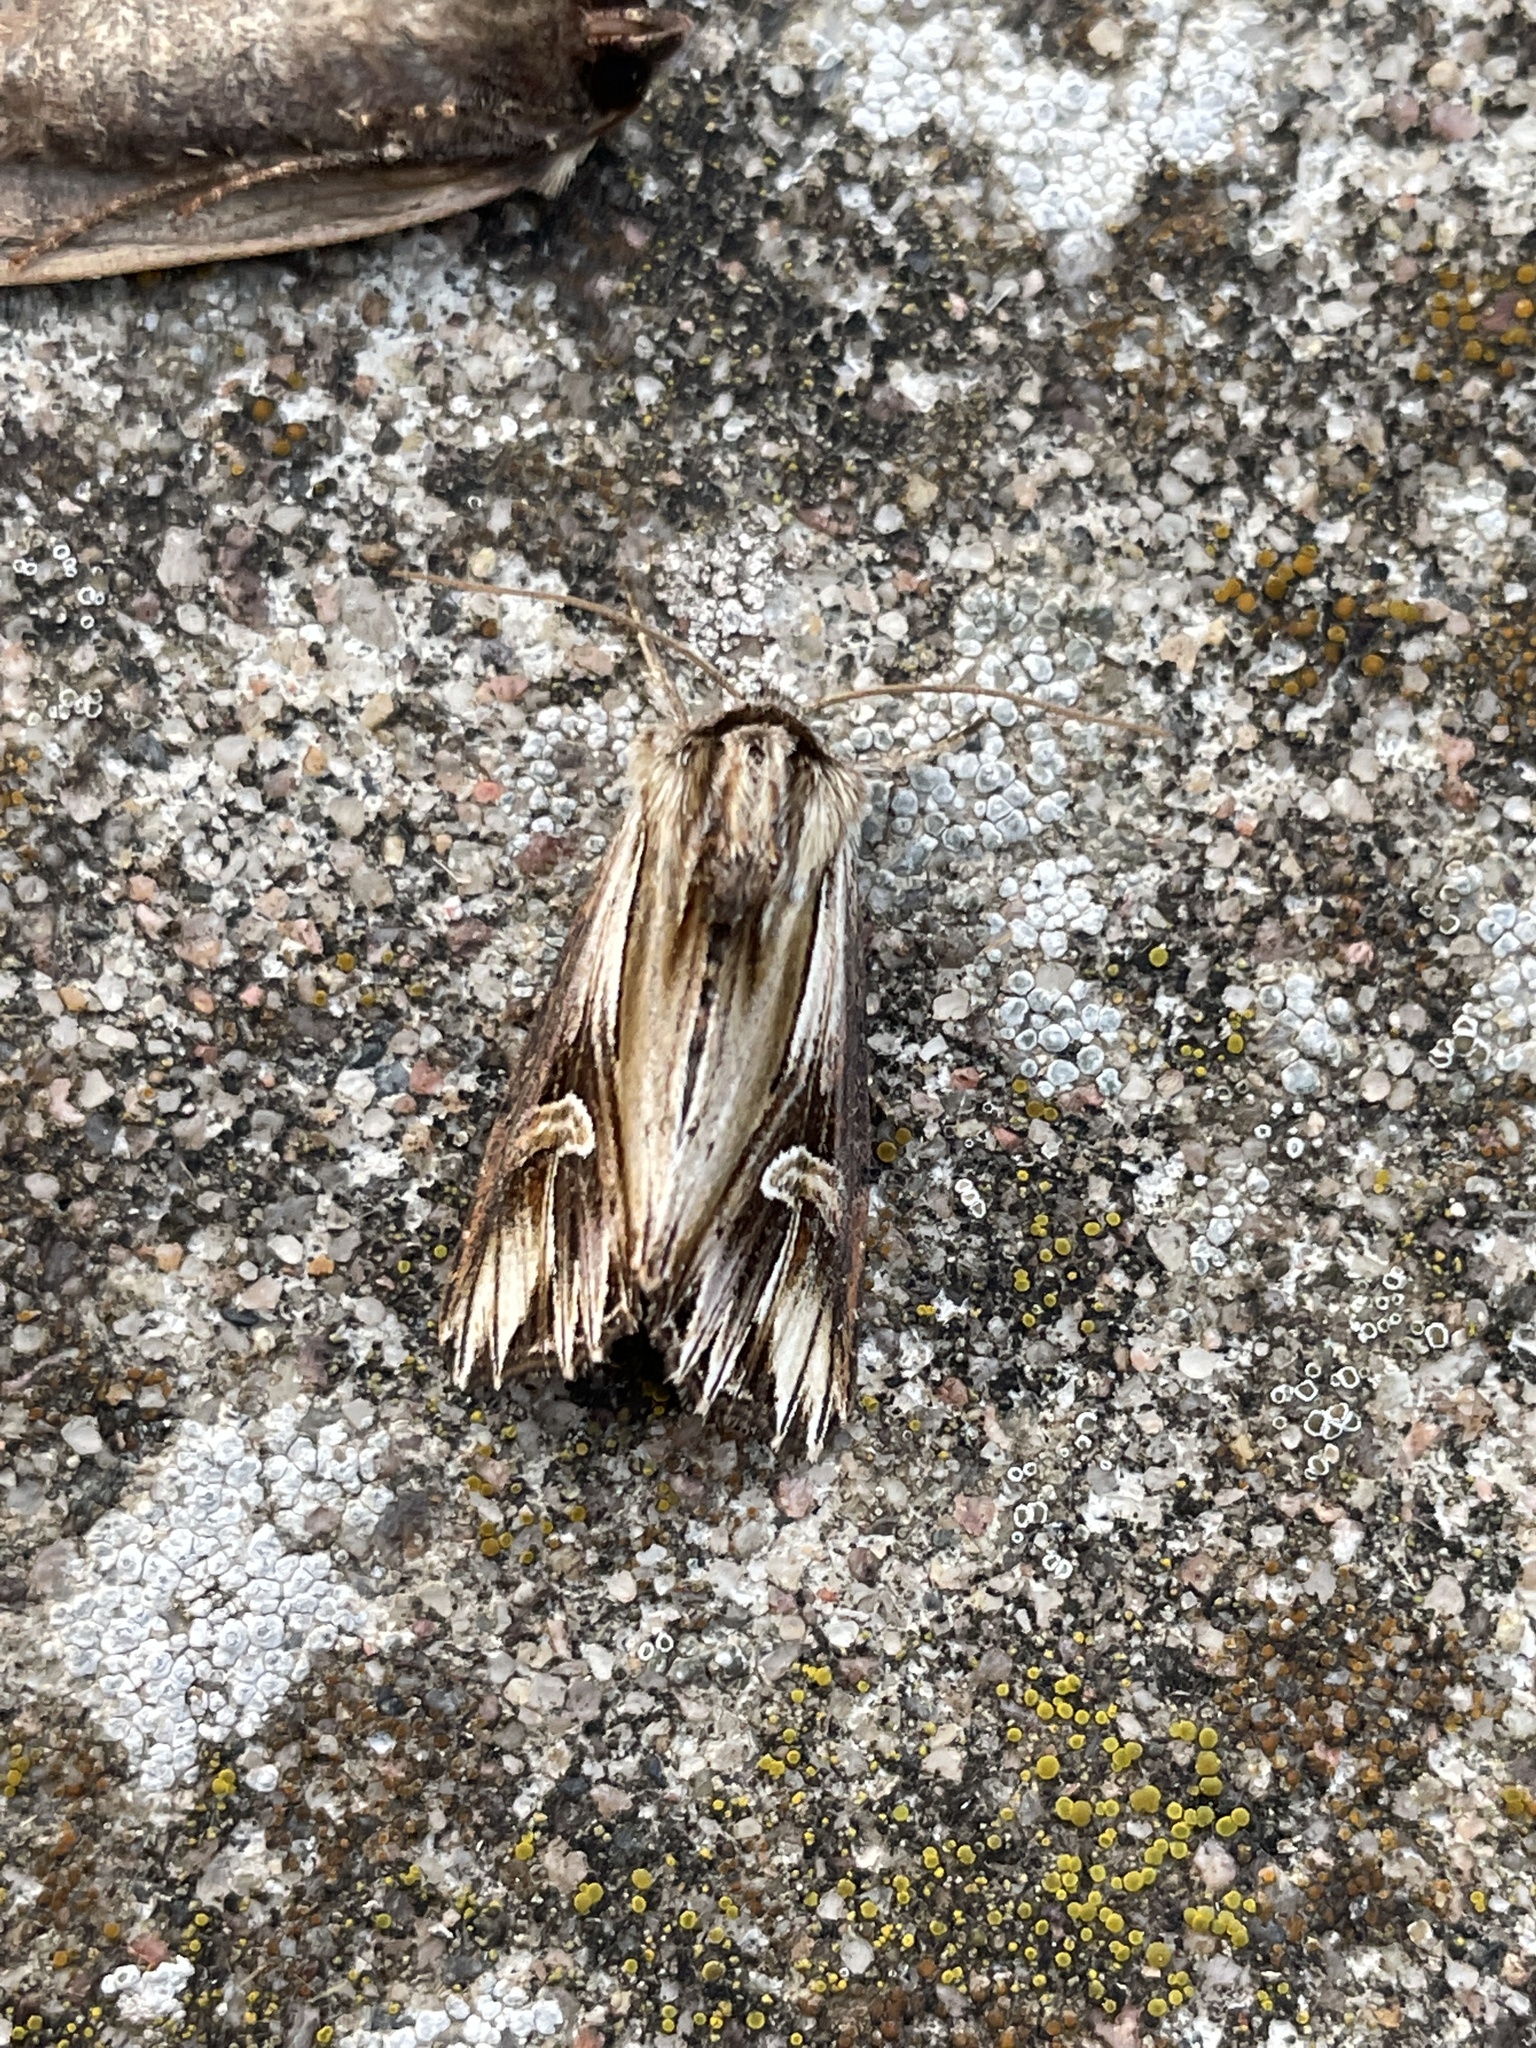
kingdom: Animalia
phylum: Arthropoda
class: Insecta
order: Lepidoptera
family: Noctuidae
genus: Actinotia
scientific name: Actinotia polyodon
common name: Purple cloud
